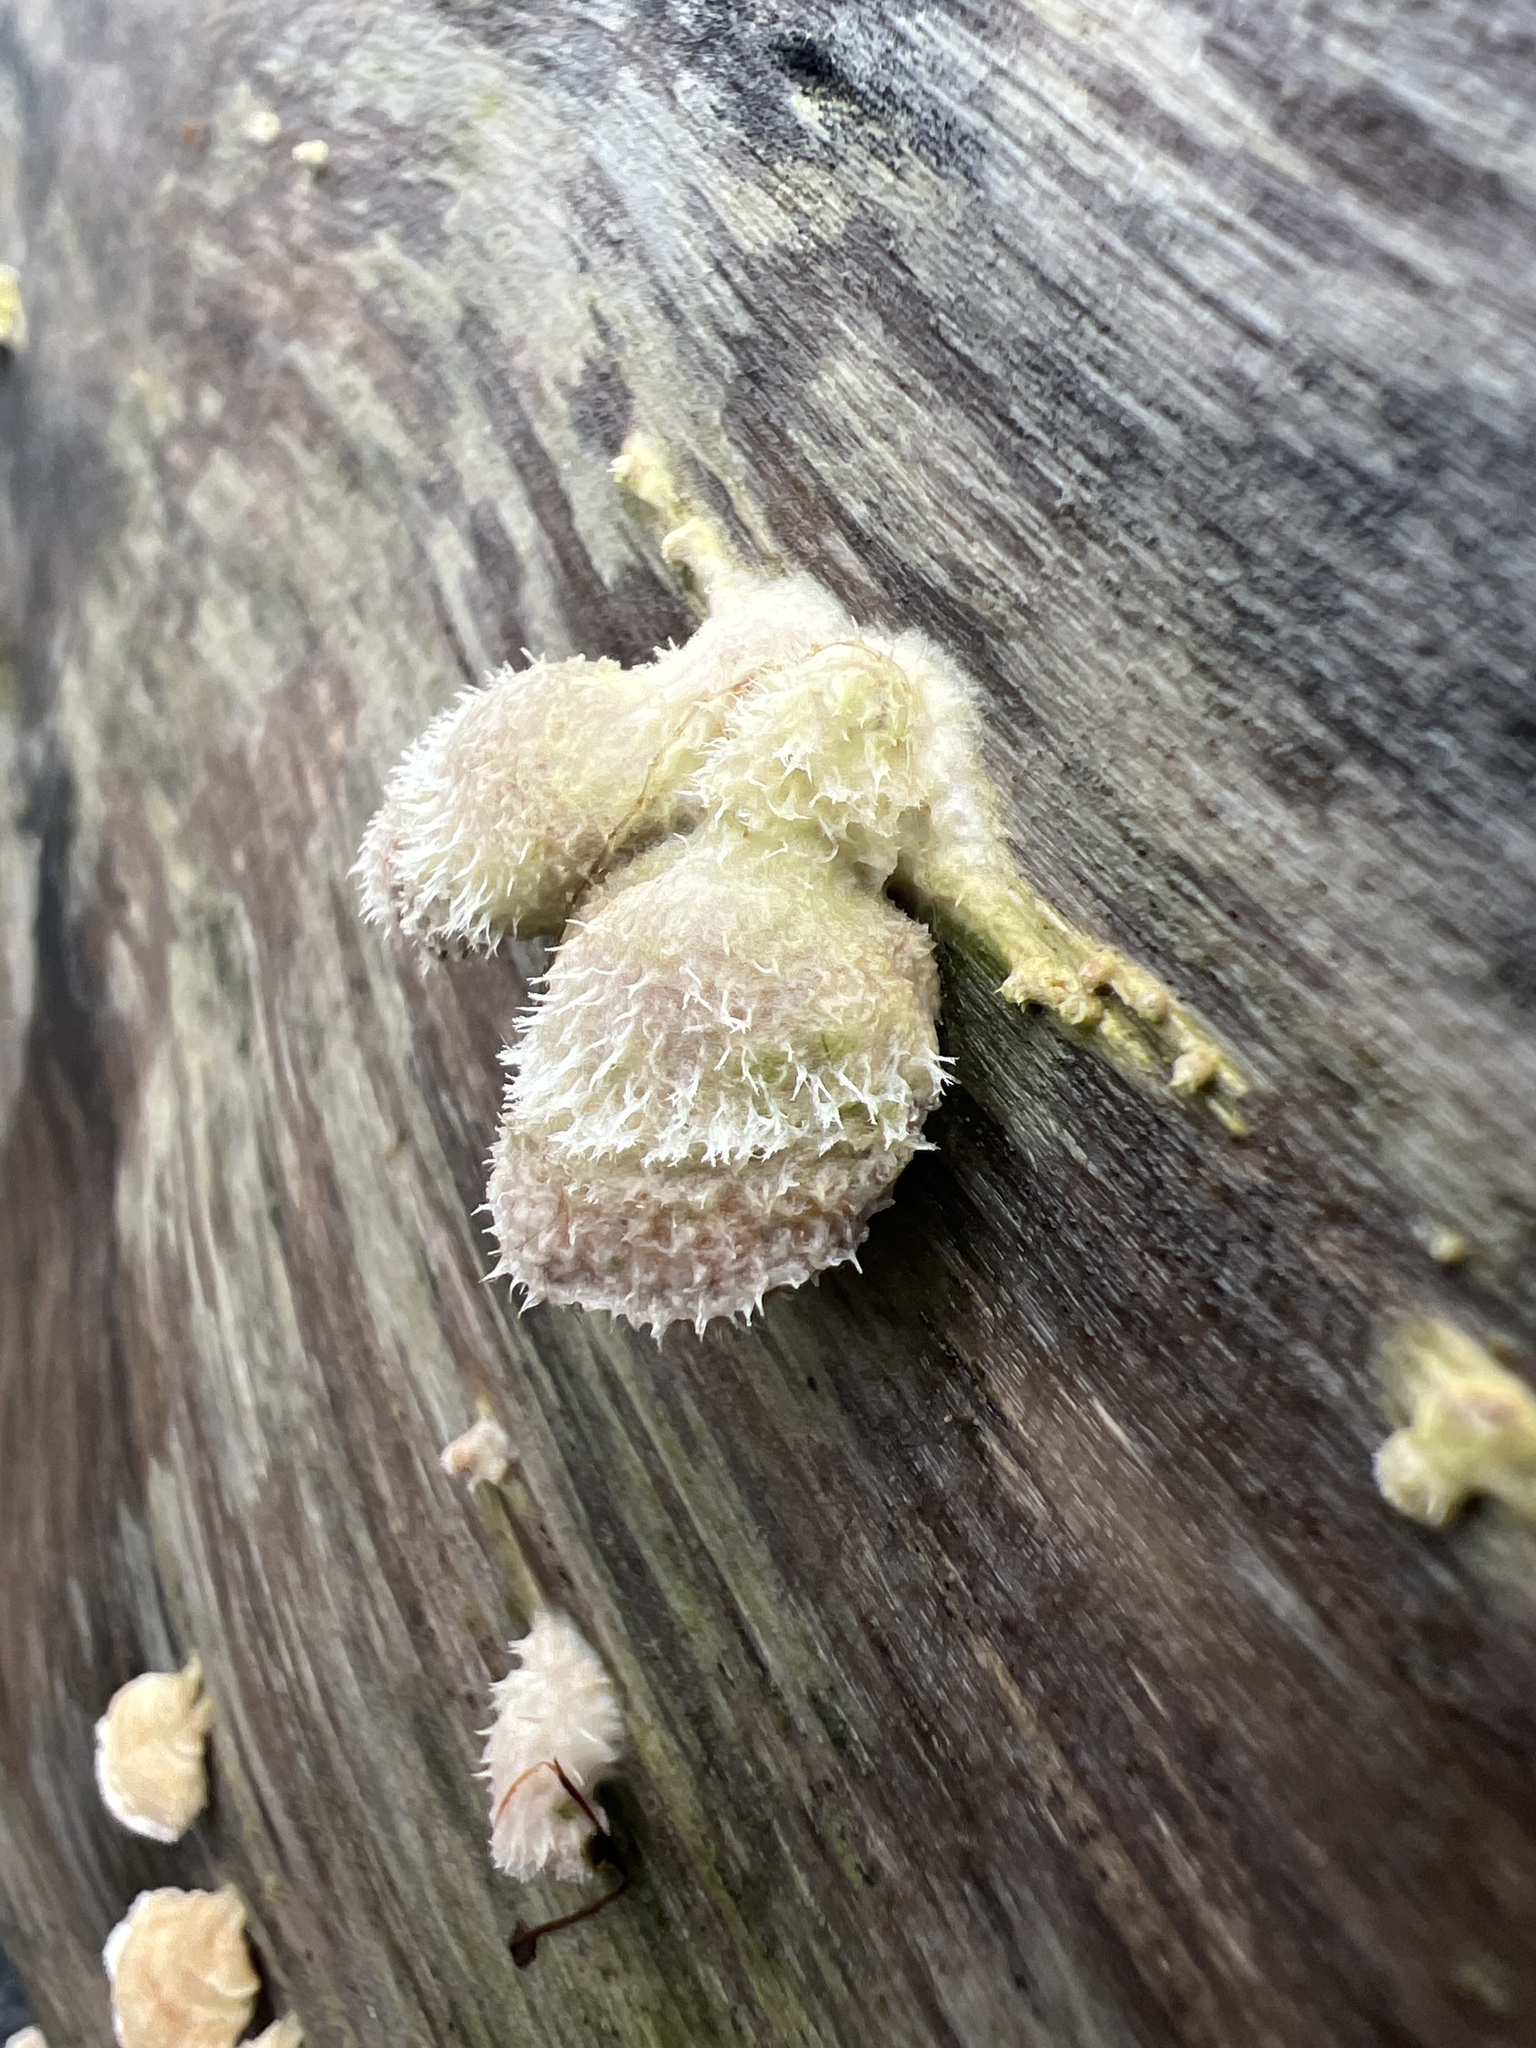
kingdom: Fungi
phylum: Basidiomycota
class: Agaricomycetes
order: Agaricales
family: Schizophyllaceae
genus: Schizophyllum
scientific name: Schizophyllum commune
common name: Common porecrust
